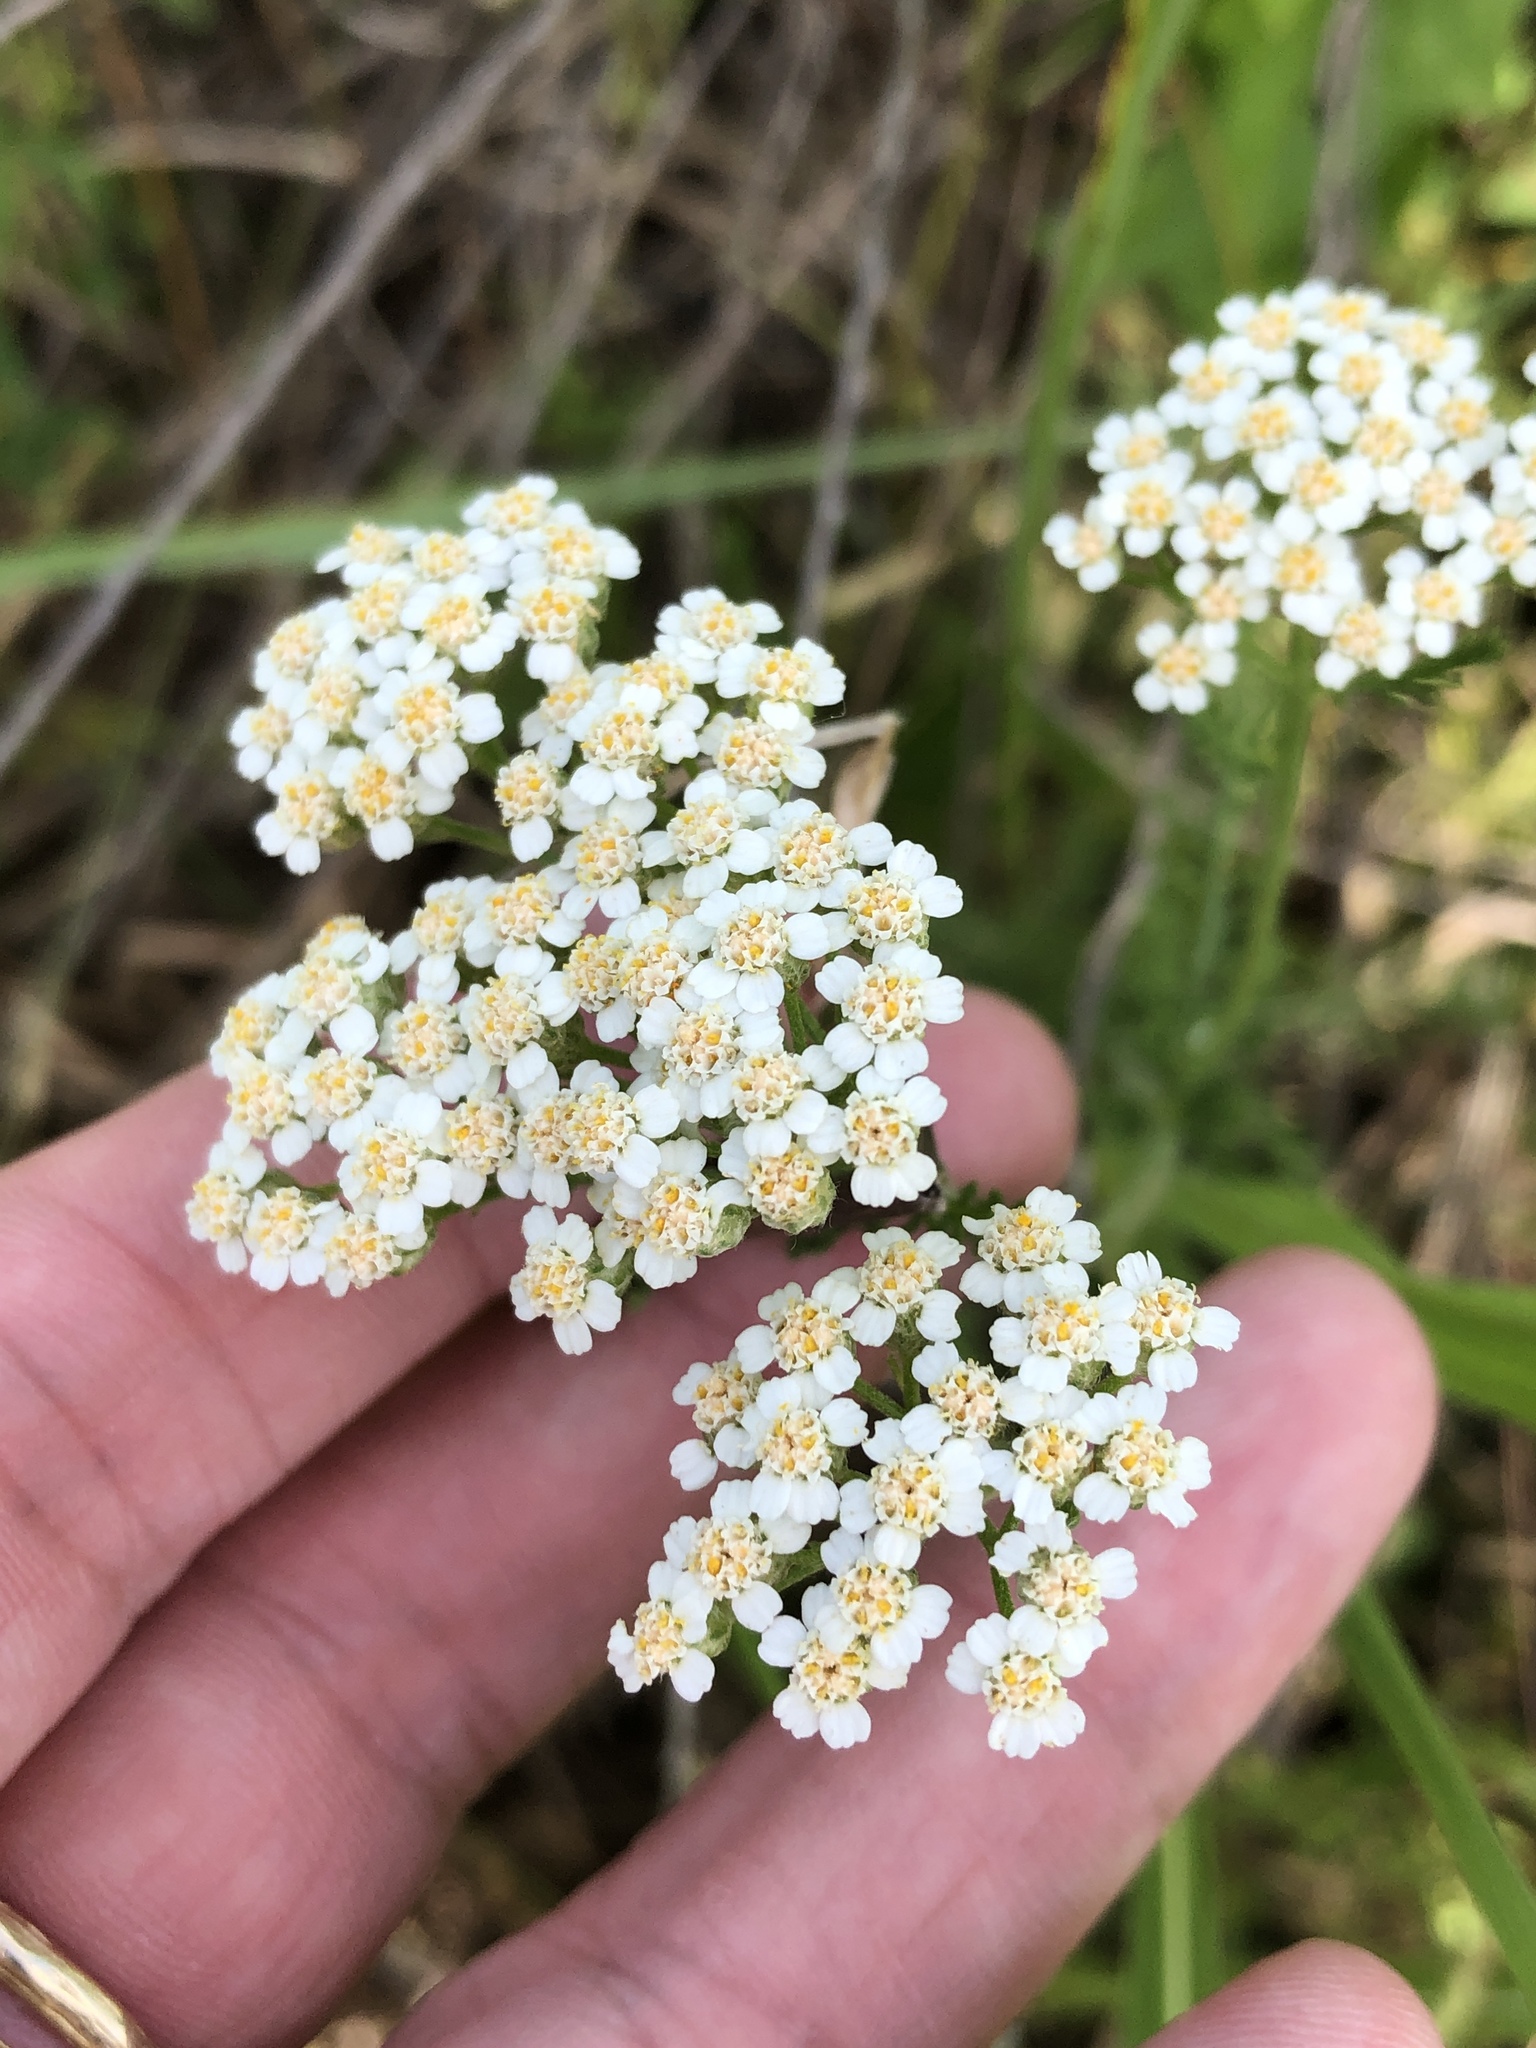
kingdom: Plantae
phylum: Tracheophyta
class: Magnoliopsida
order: Asterales
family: Asteraceae
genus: Achillea
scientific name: Achillea millefolium
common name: Yarrow
